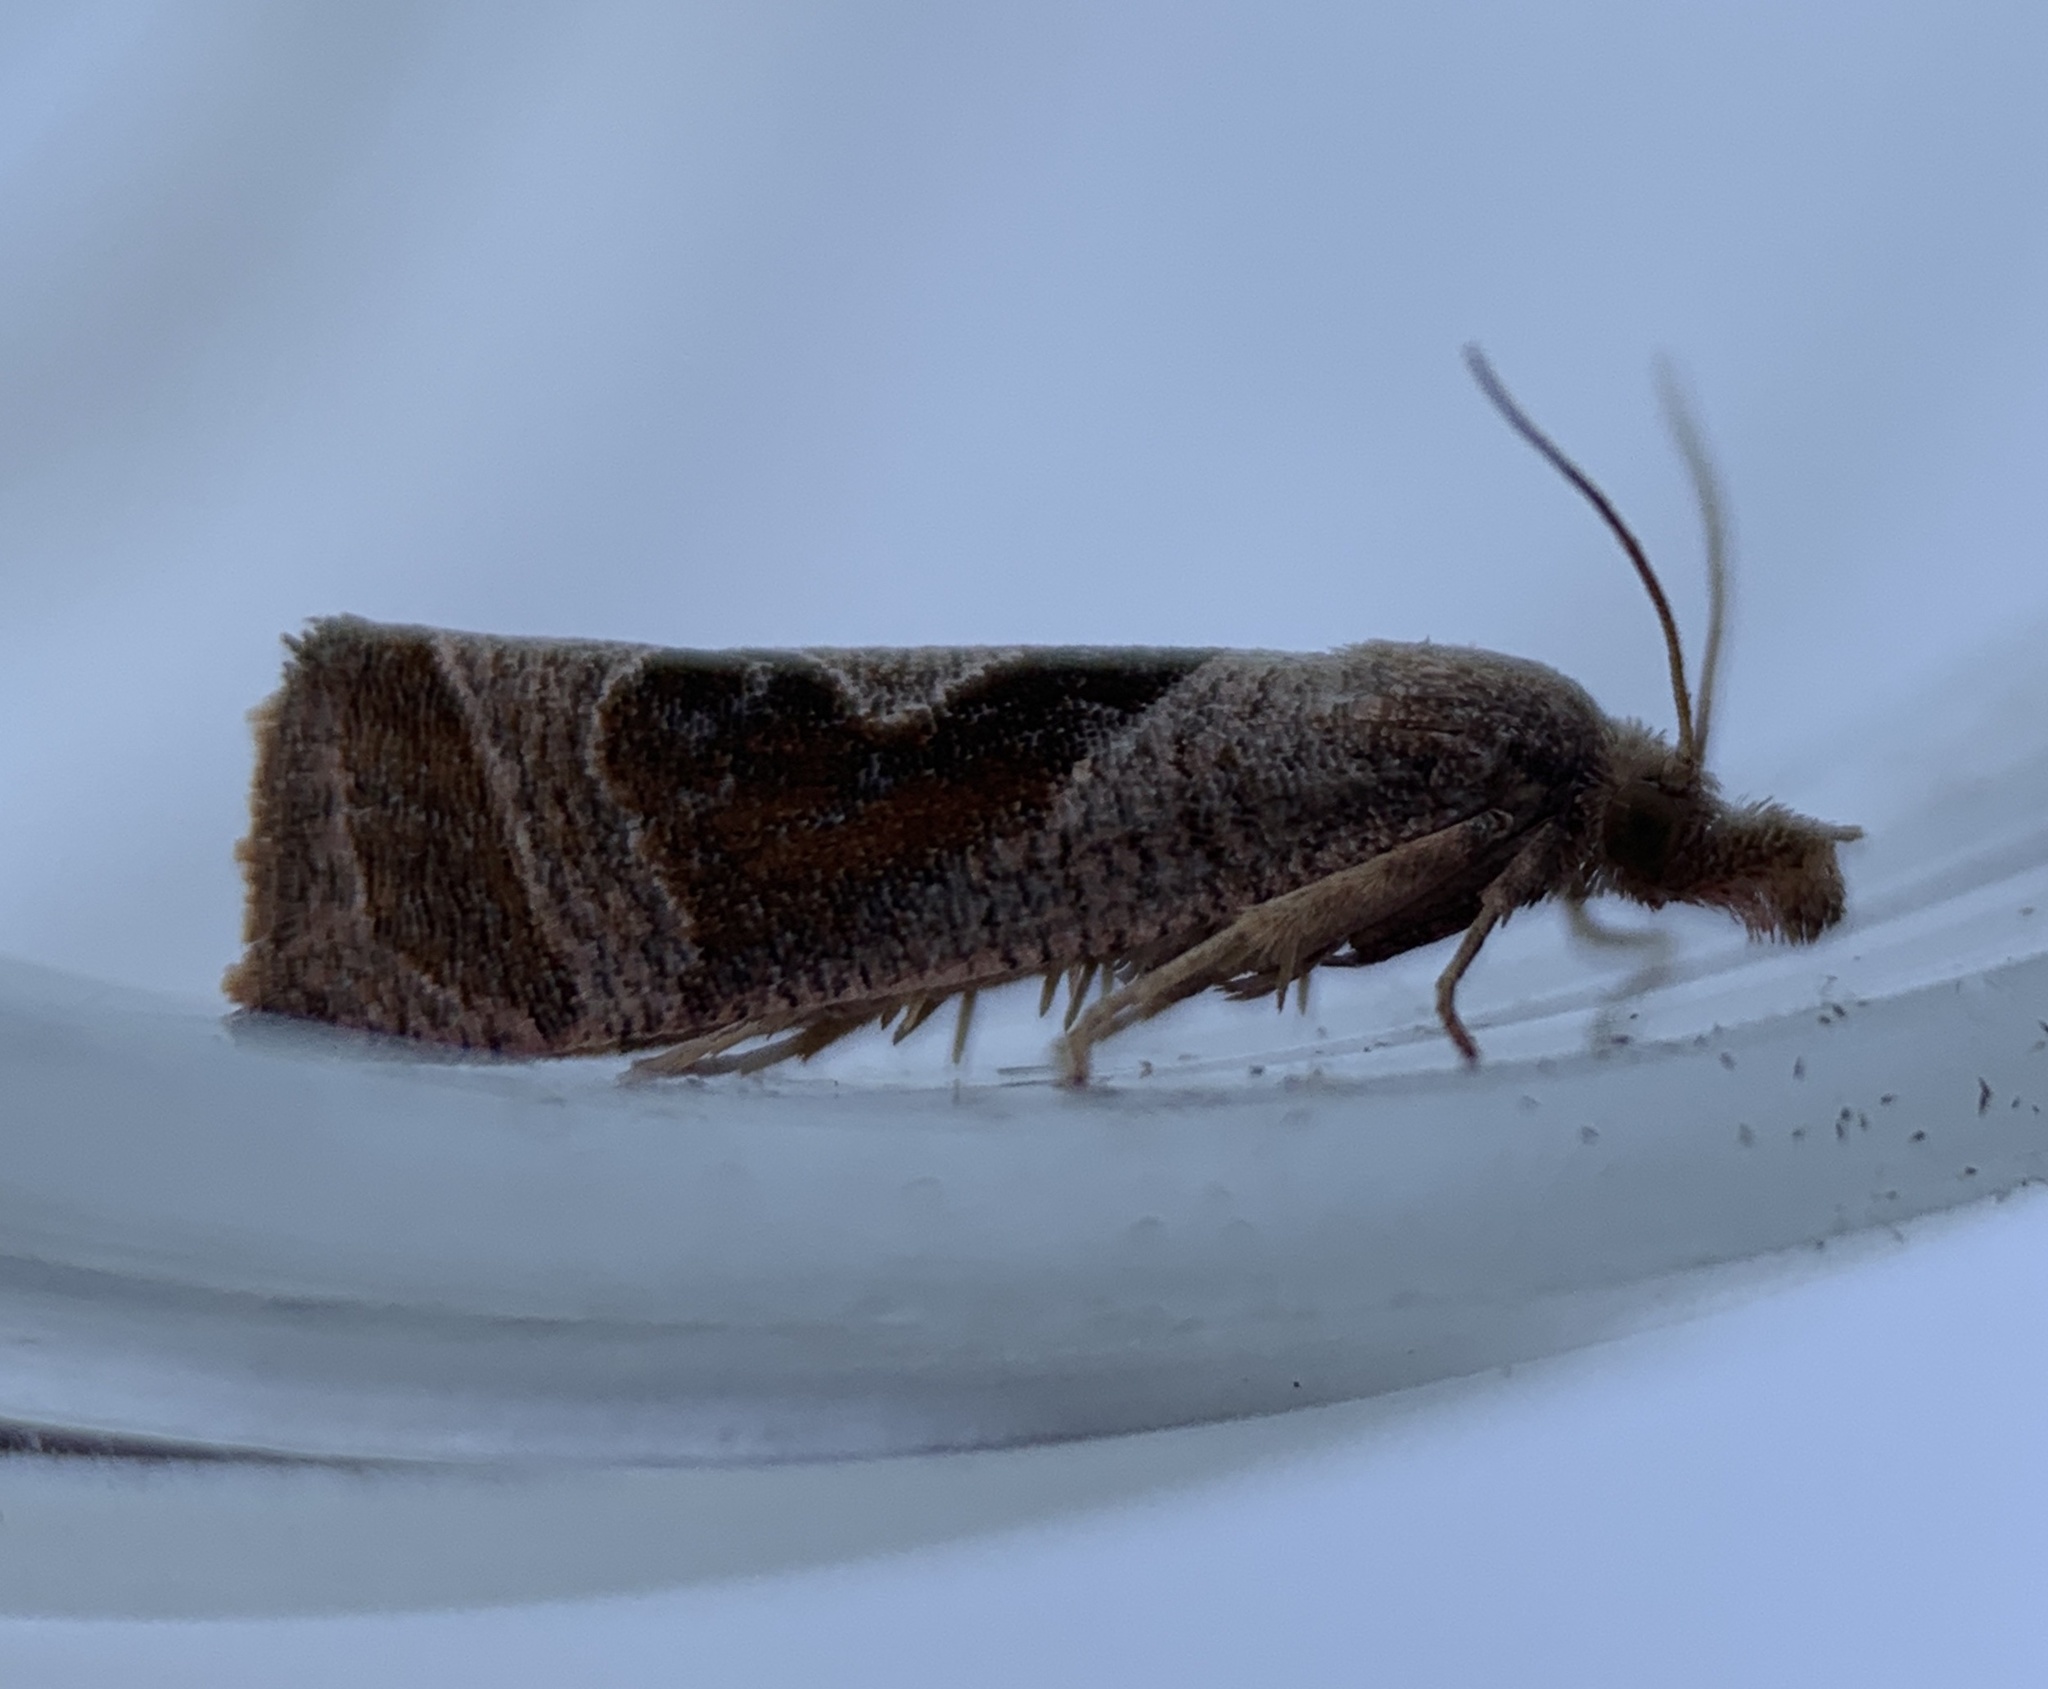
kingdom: Animalia
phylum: Arthropoda
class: Insecta
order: Lepidoptera
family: Tortricidae
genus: Pelochrista
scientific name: Pelochrista similiana
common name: Similar eucosma
